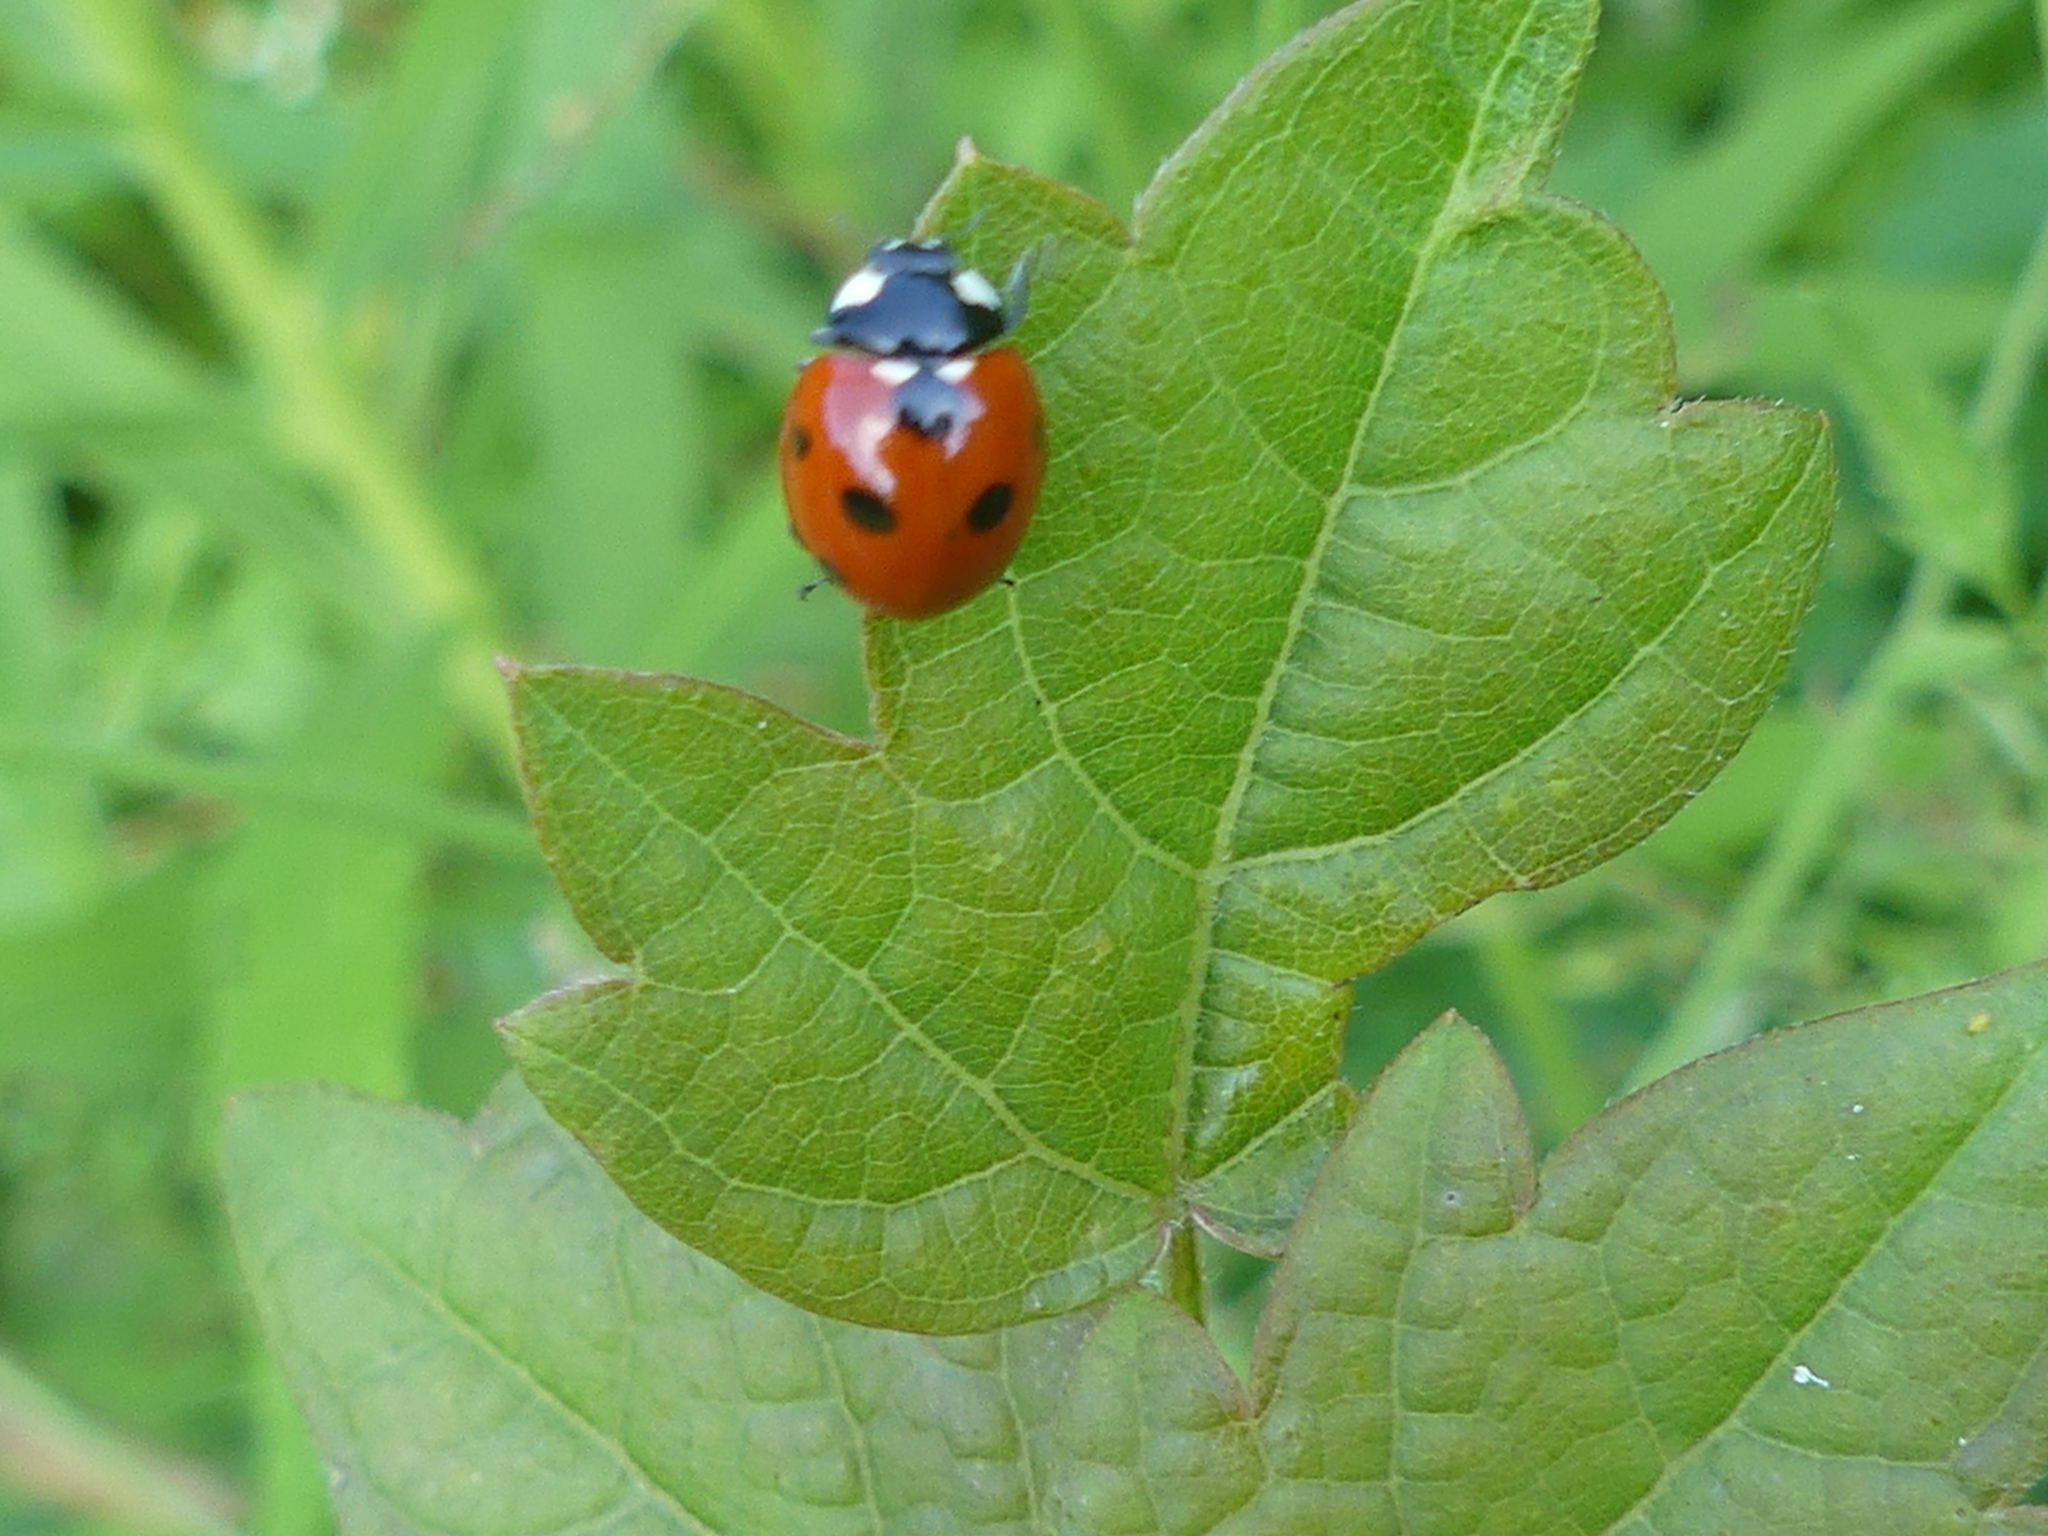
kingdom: Animalia
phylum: Arthropoda
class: Insecta
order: Coleoptera
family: Coccinellidae
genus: Coccinella
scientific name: Coccinella septempunctata
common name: Sevenspotted lady beetle
